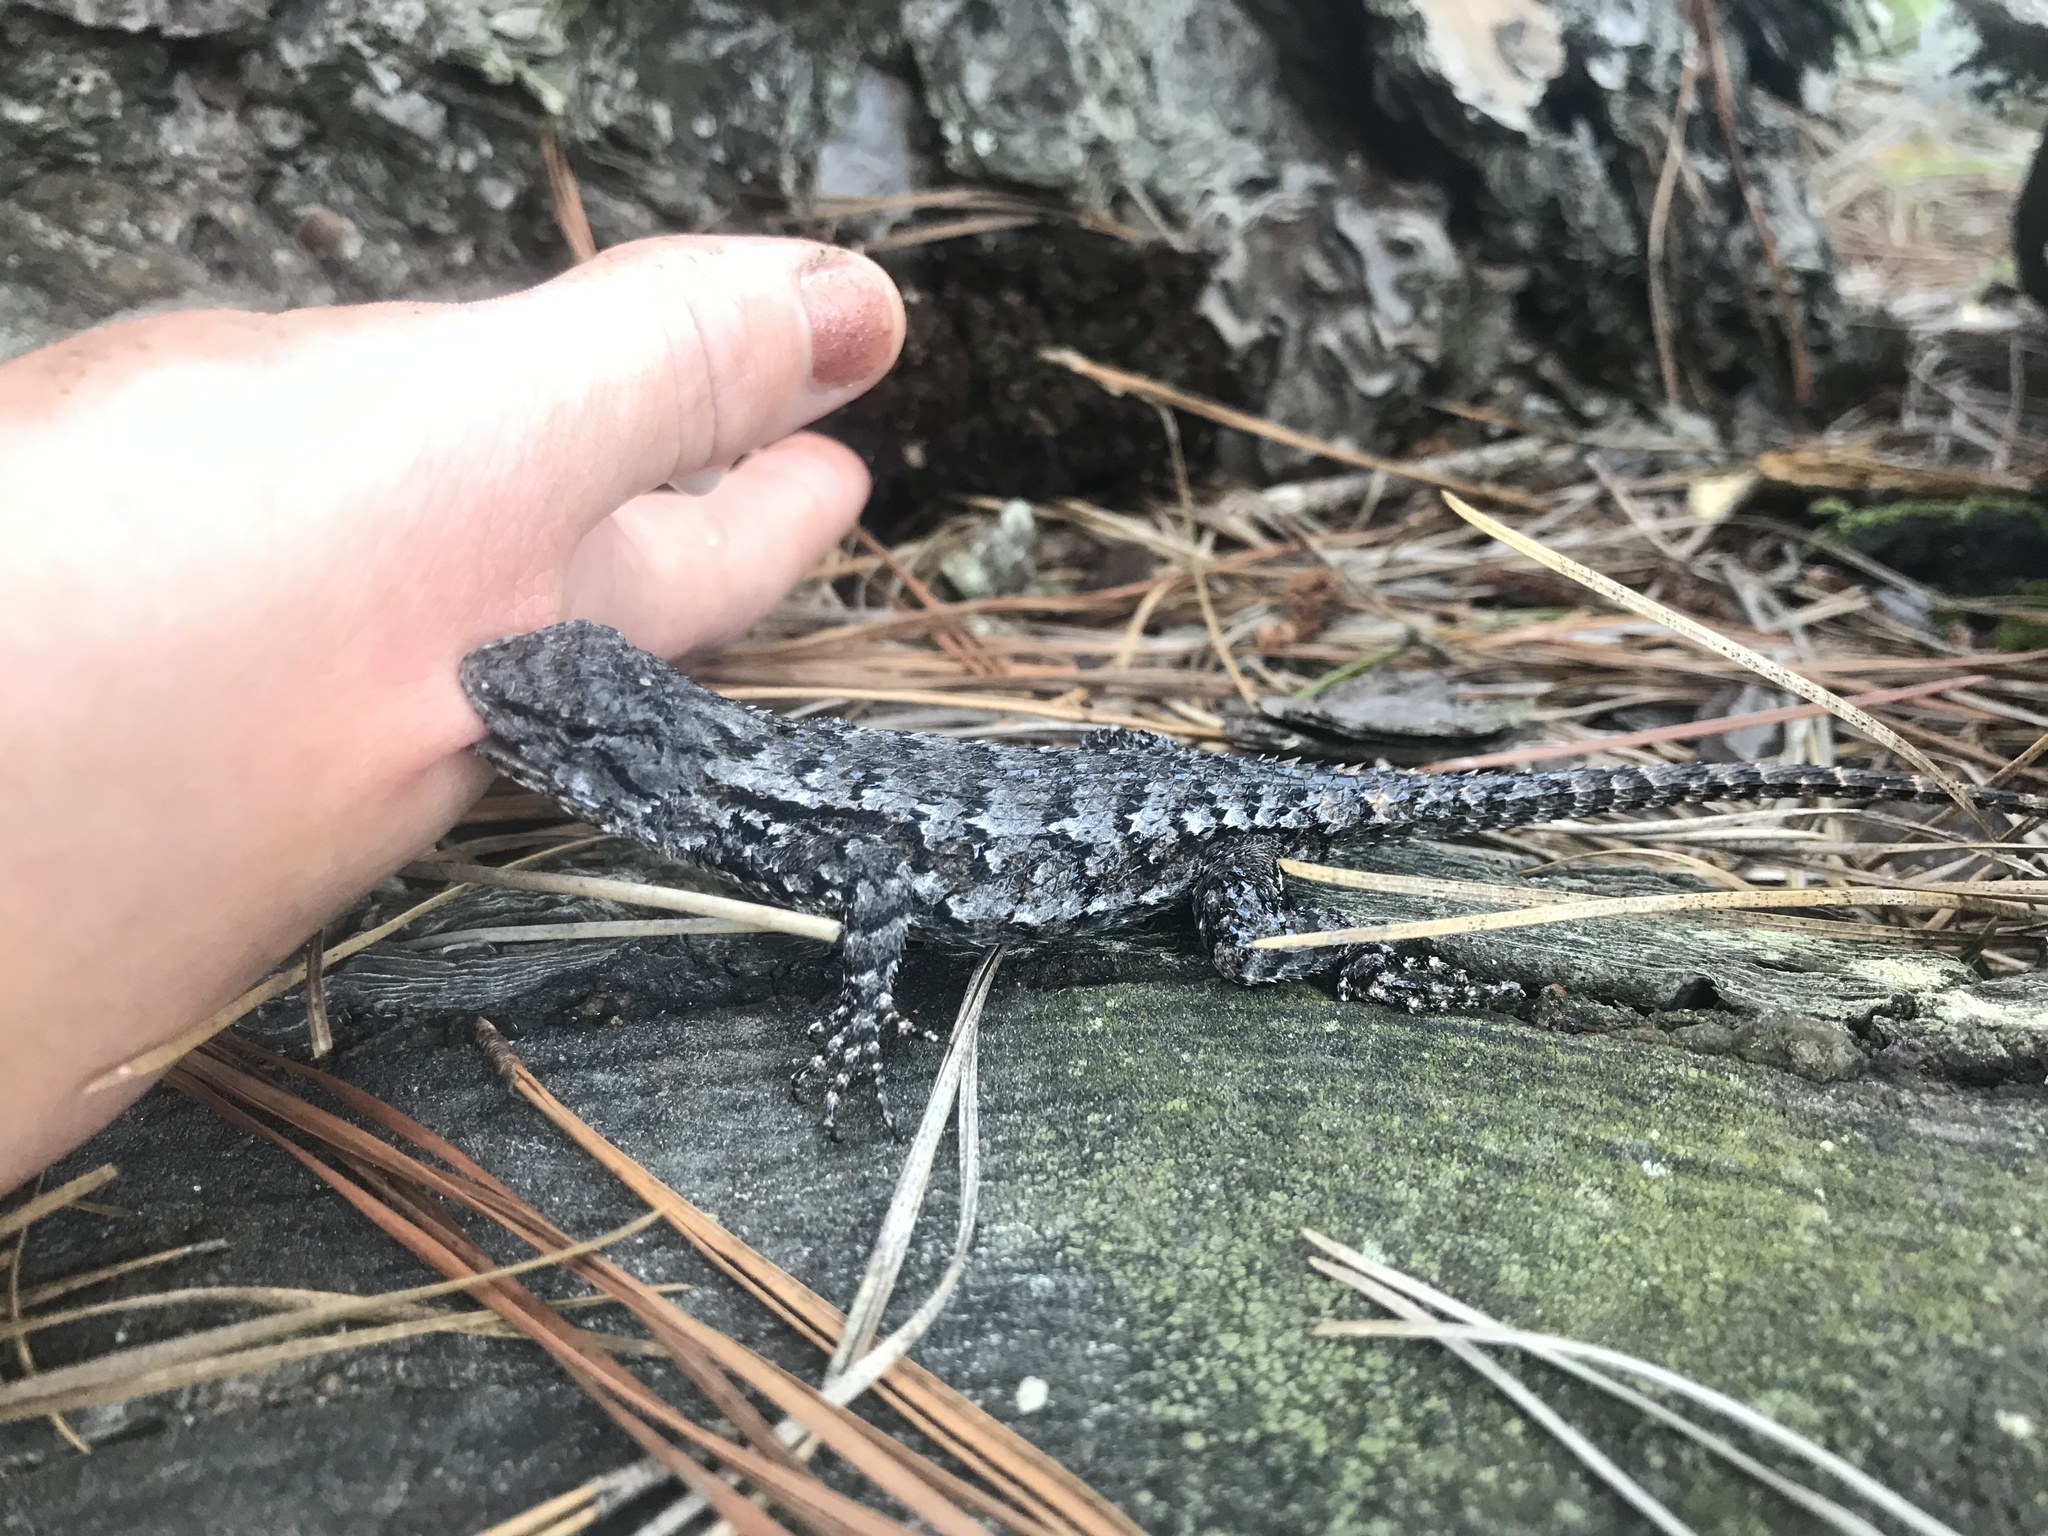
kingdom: Animalia
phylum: Chordata
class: Squamata
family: Phrynosomatidae
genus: Sceloporus
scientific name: Sceloporus undulatus
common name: Eastern fence lizard
